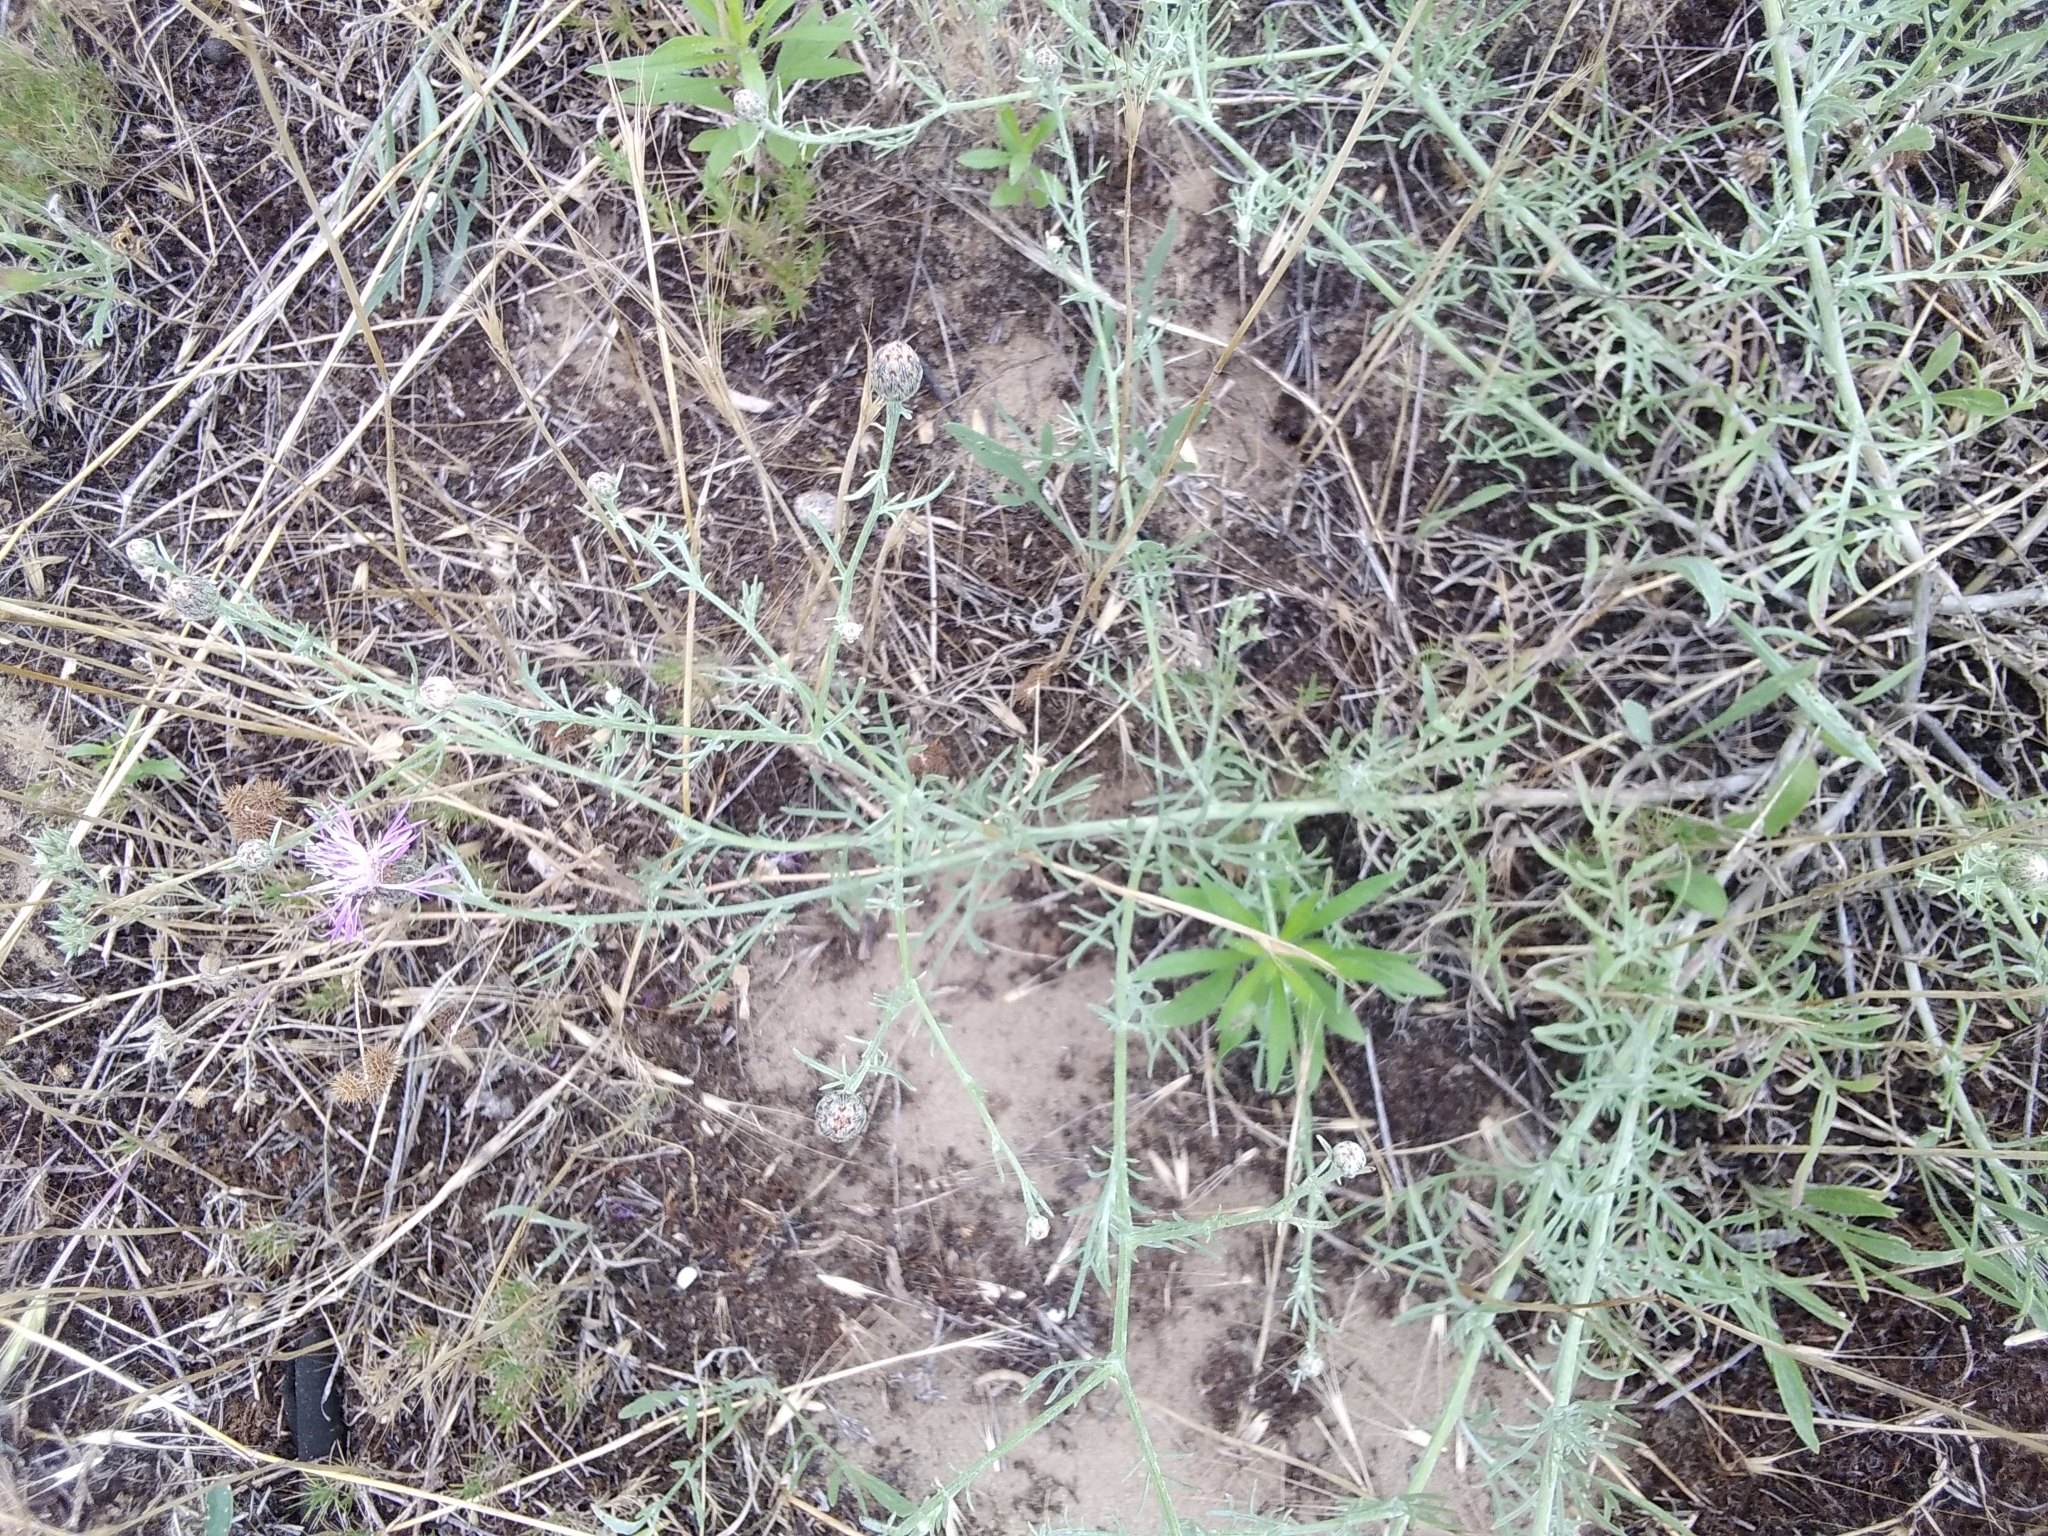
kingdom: Plantae
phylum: Tracheophyta
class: Magnoliopsida
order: Asterales
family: Asteraceae
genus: Centaurea
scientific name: Centaurea arenaria
